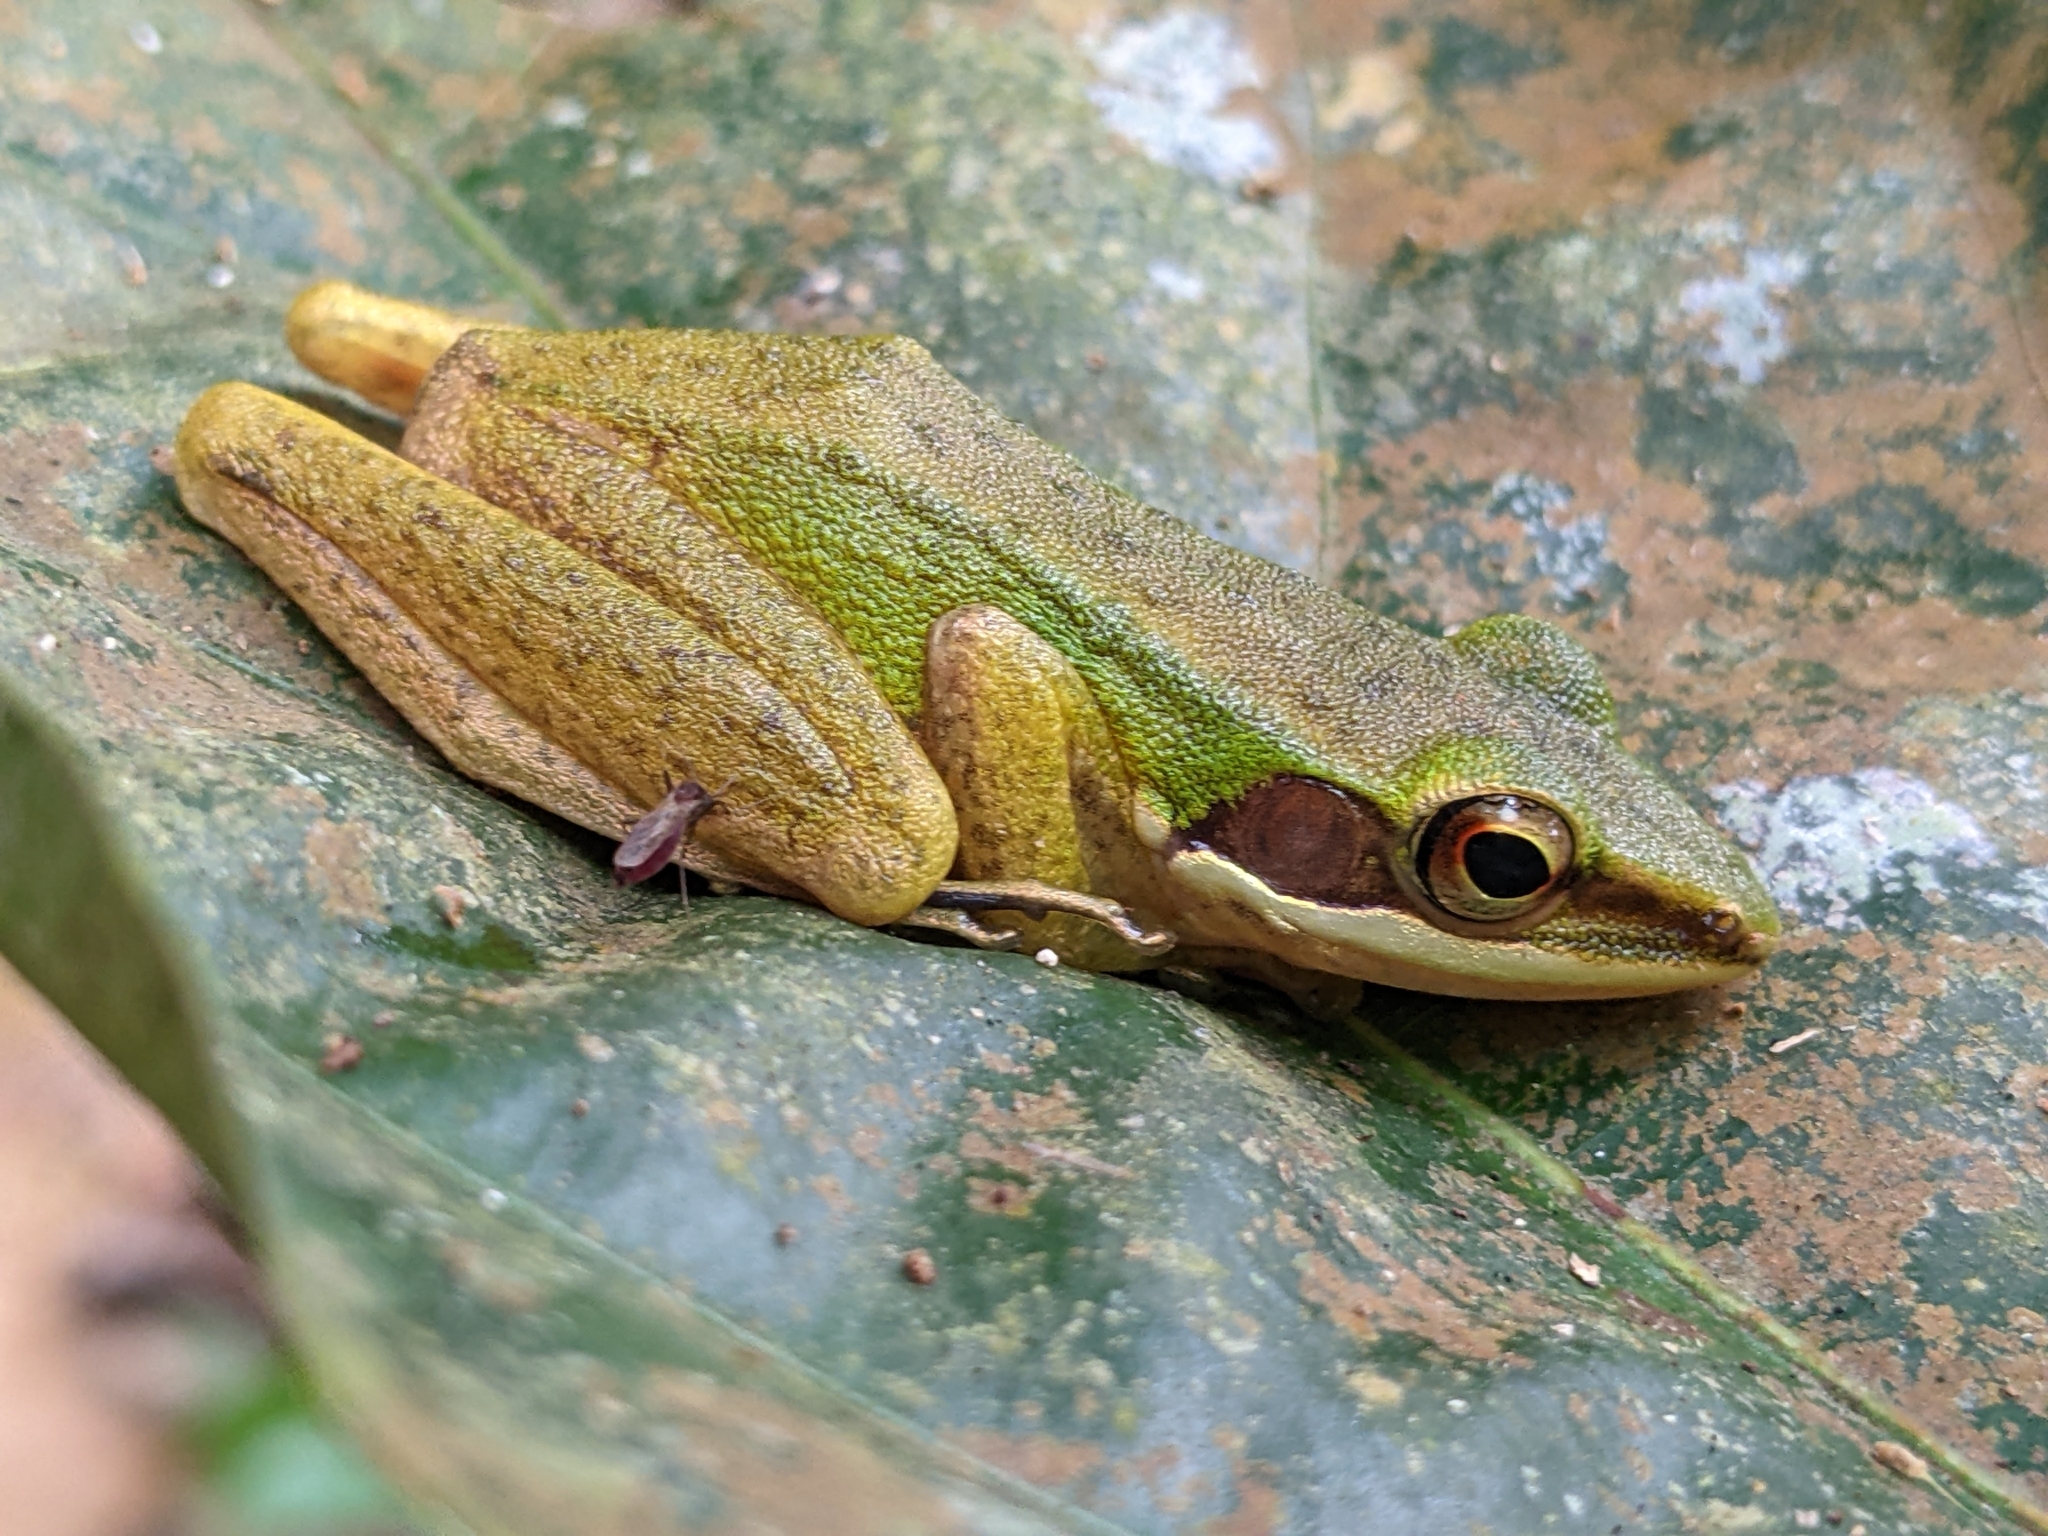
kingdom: Animalia
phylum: Chordata
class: Amphibia
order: Anura
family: Ranidae
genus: Chalcorana
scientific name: Chalcorana labialis
